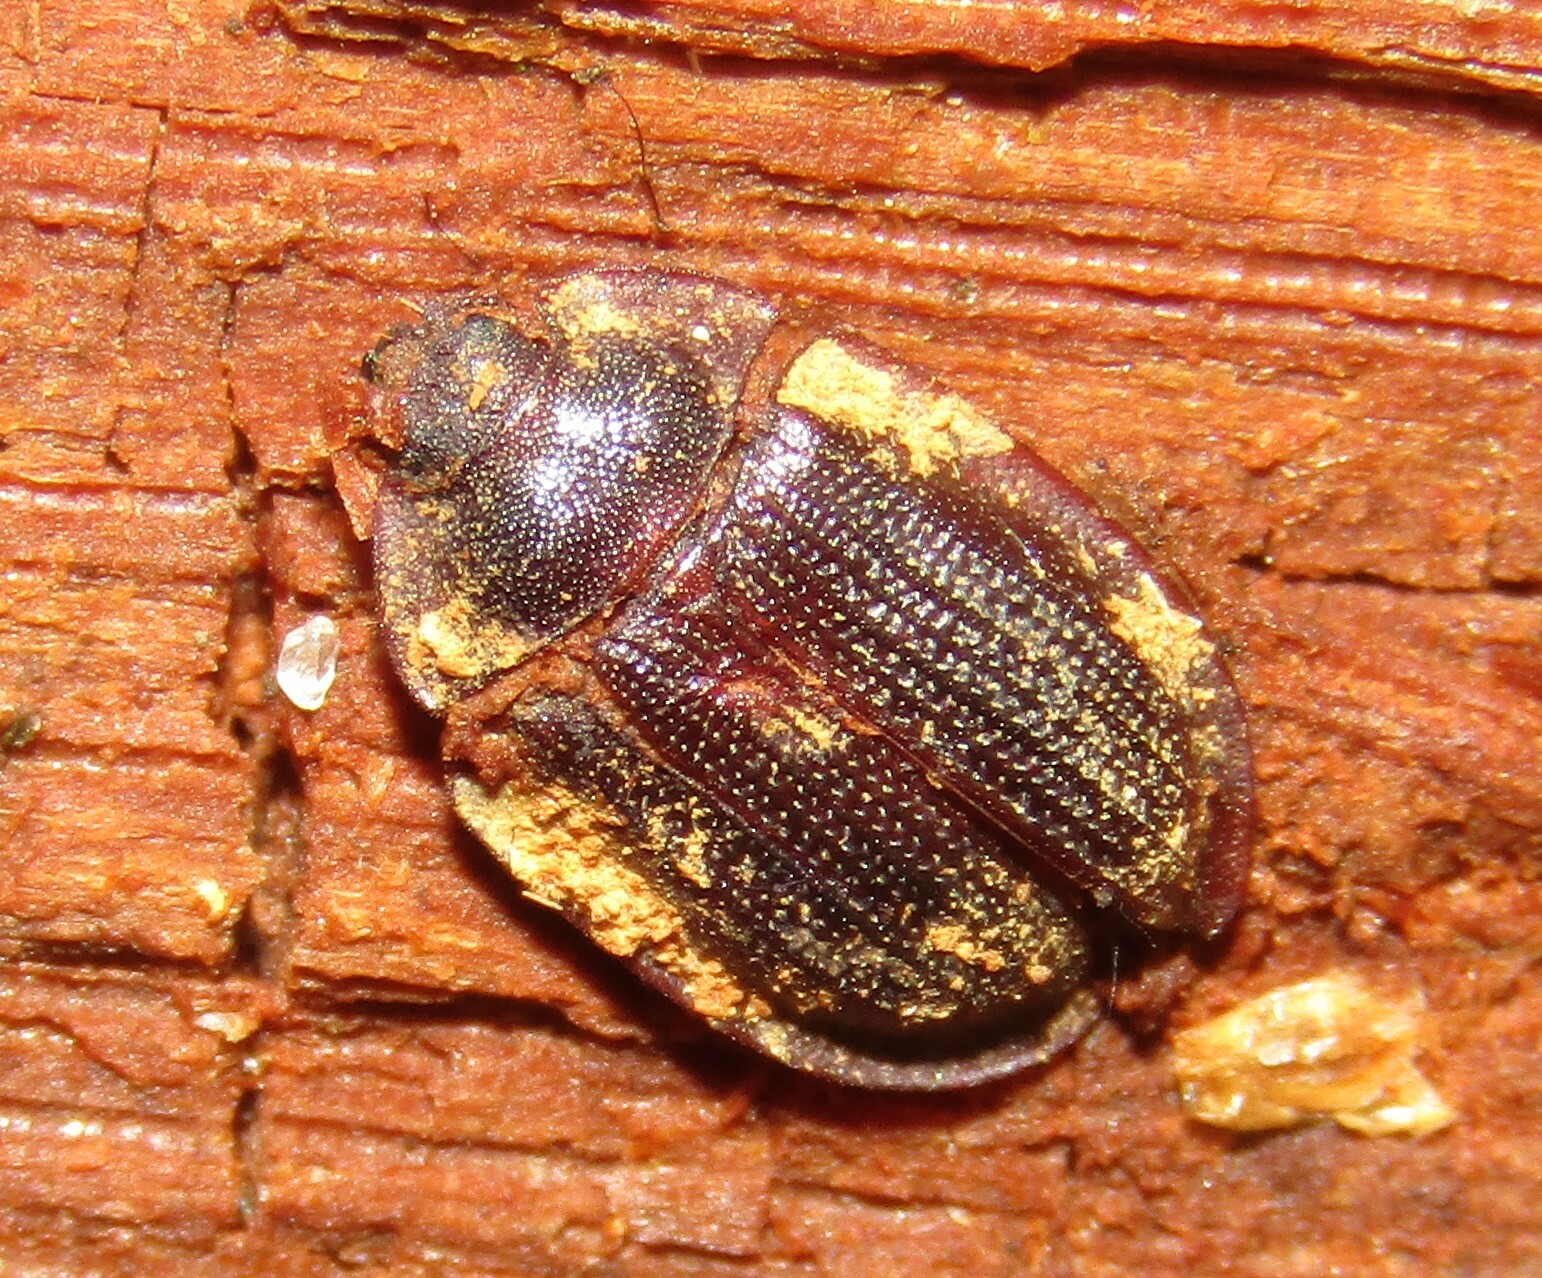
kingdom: Animalia
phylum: Arthropoda
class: Insecta
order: Coleoptera
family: Trogossitidae
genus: Peltis
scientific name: Peltis ferruginea
